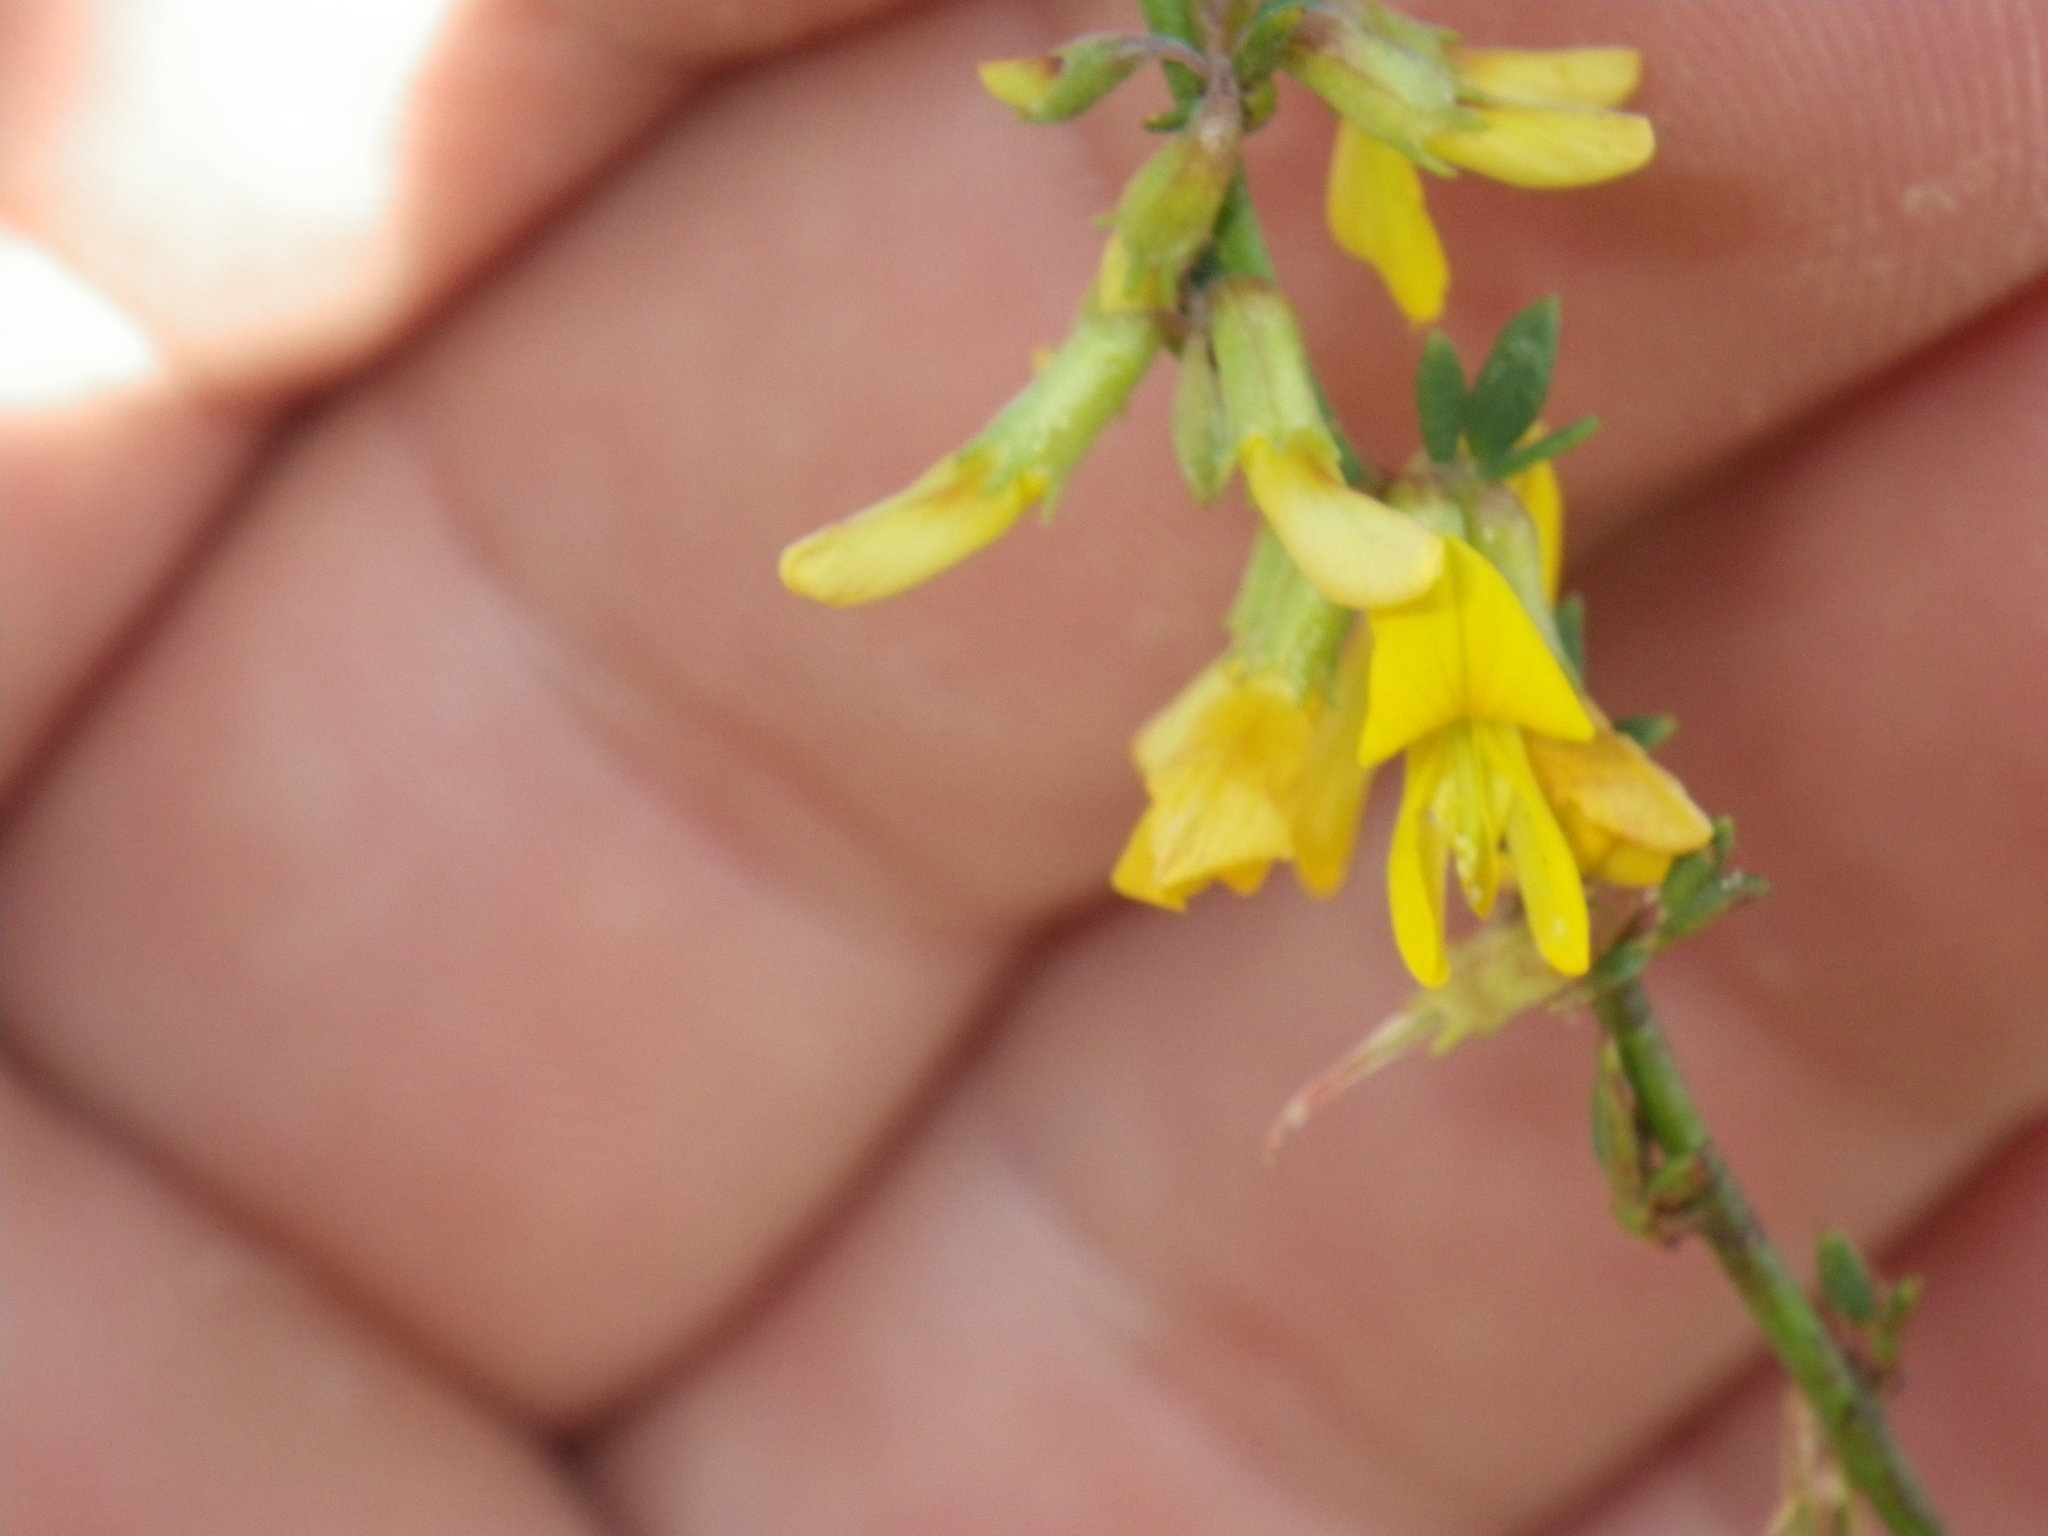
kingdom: Plantae
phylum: Tracheophyta
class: Magnoliopsida
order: Fabales
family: Fabaceae
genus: Acmispon
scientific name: Acmispon glaber
